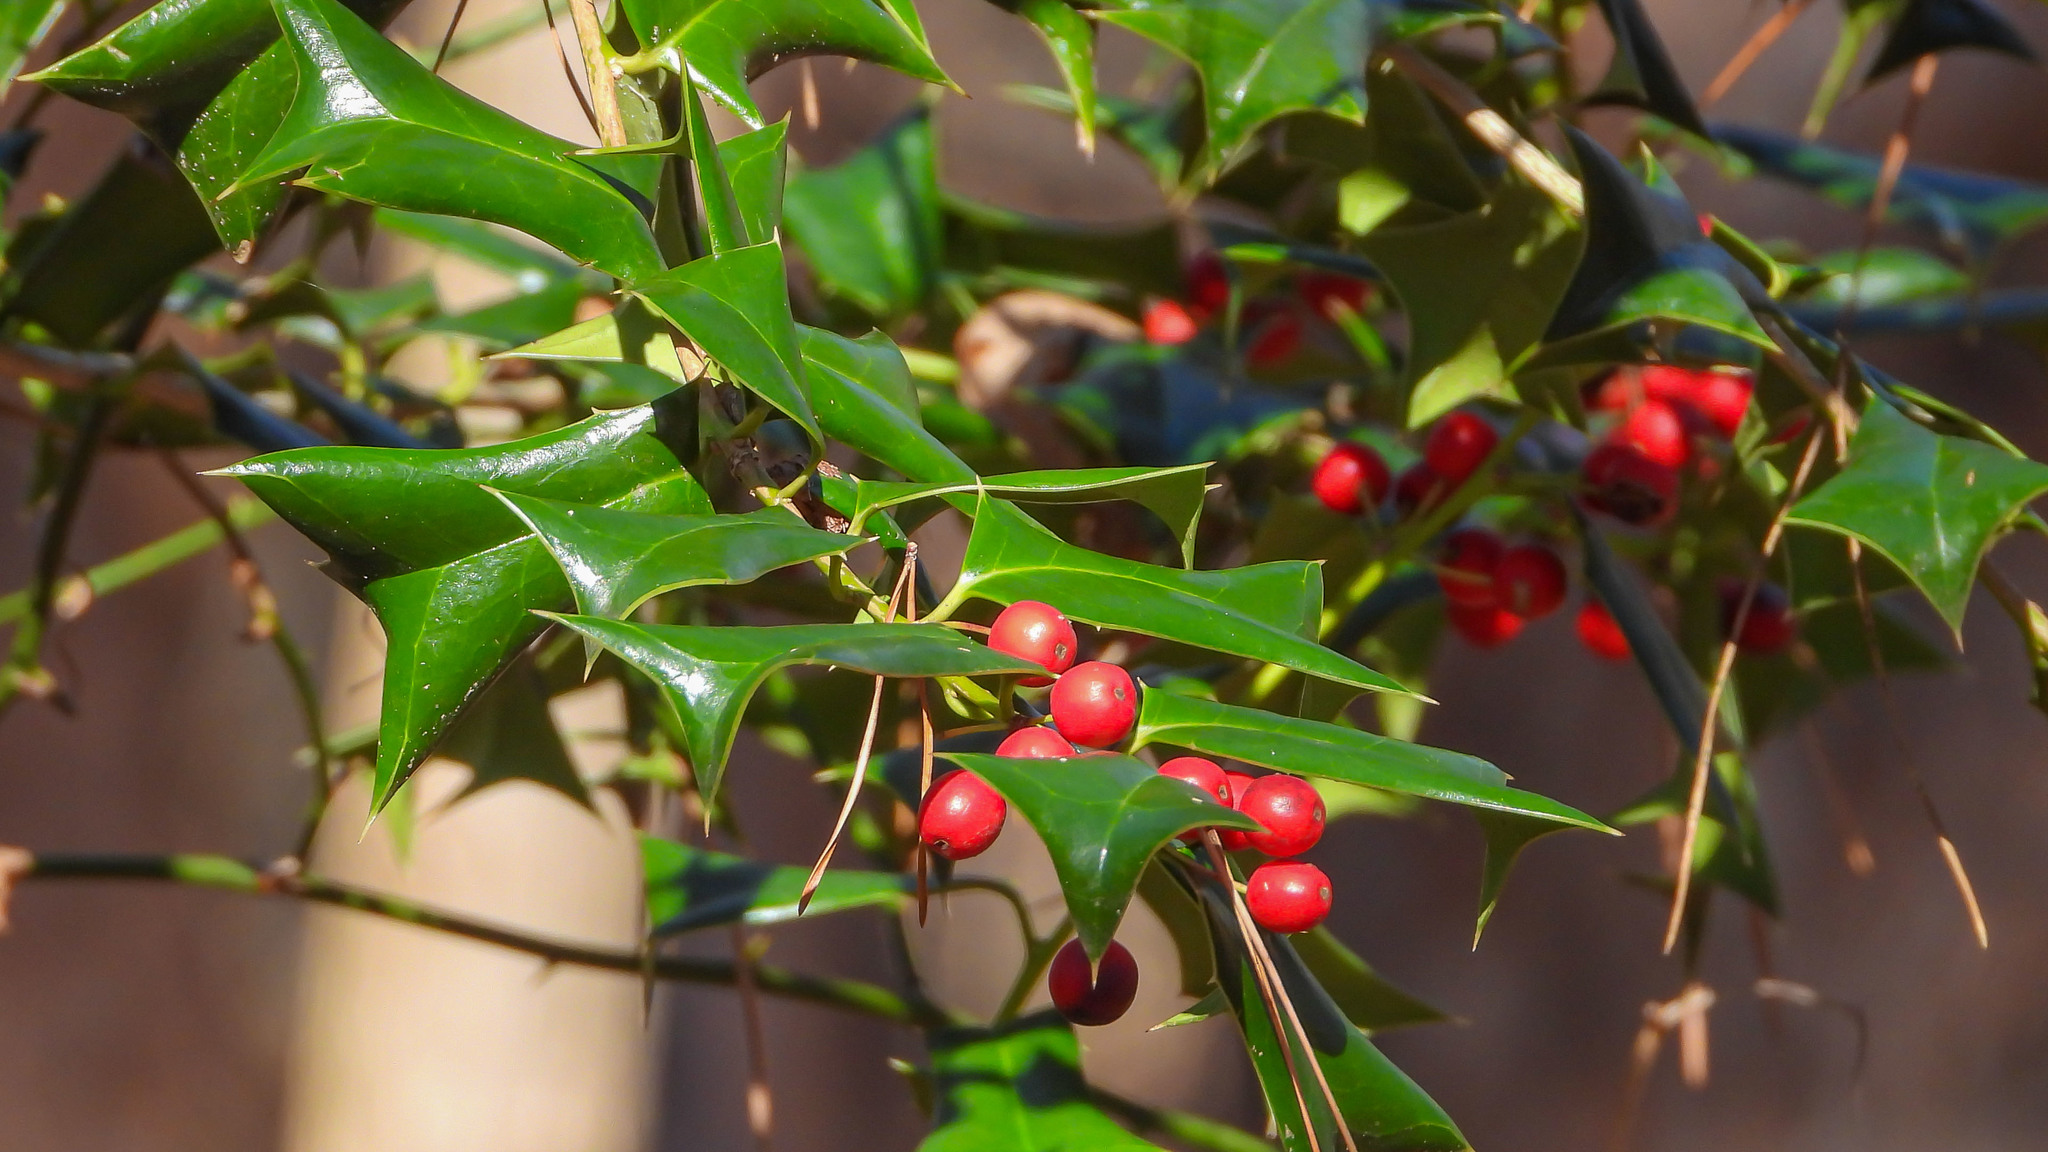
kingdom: Plantae
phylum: Tracheophyta
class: Magnoliopsida
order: Aquifoliales
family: Aquifoliaceae
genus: Ilex
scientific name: Ilex cornuta
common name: Chinese holly
